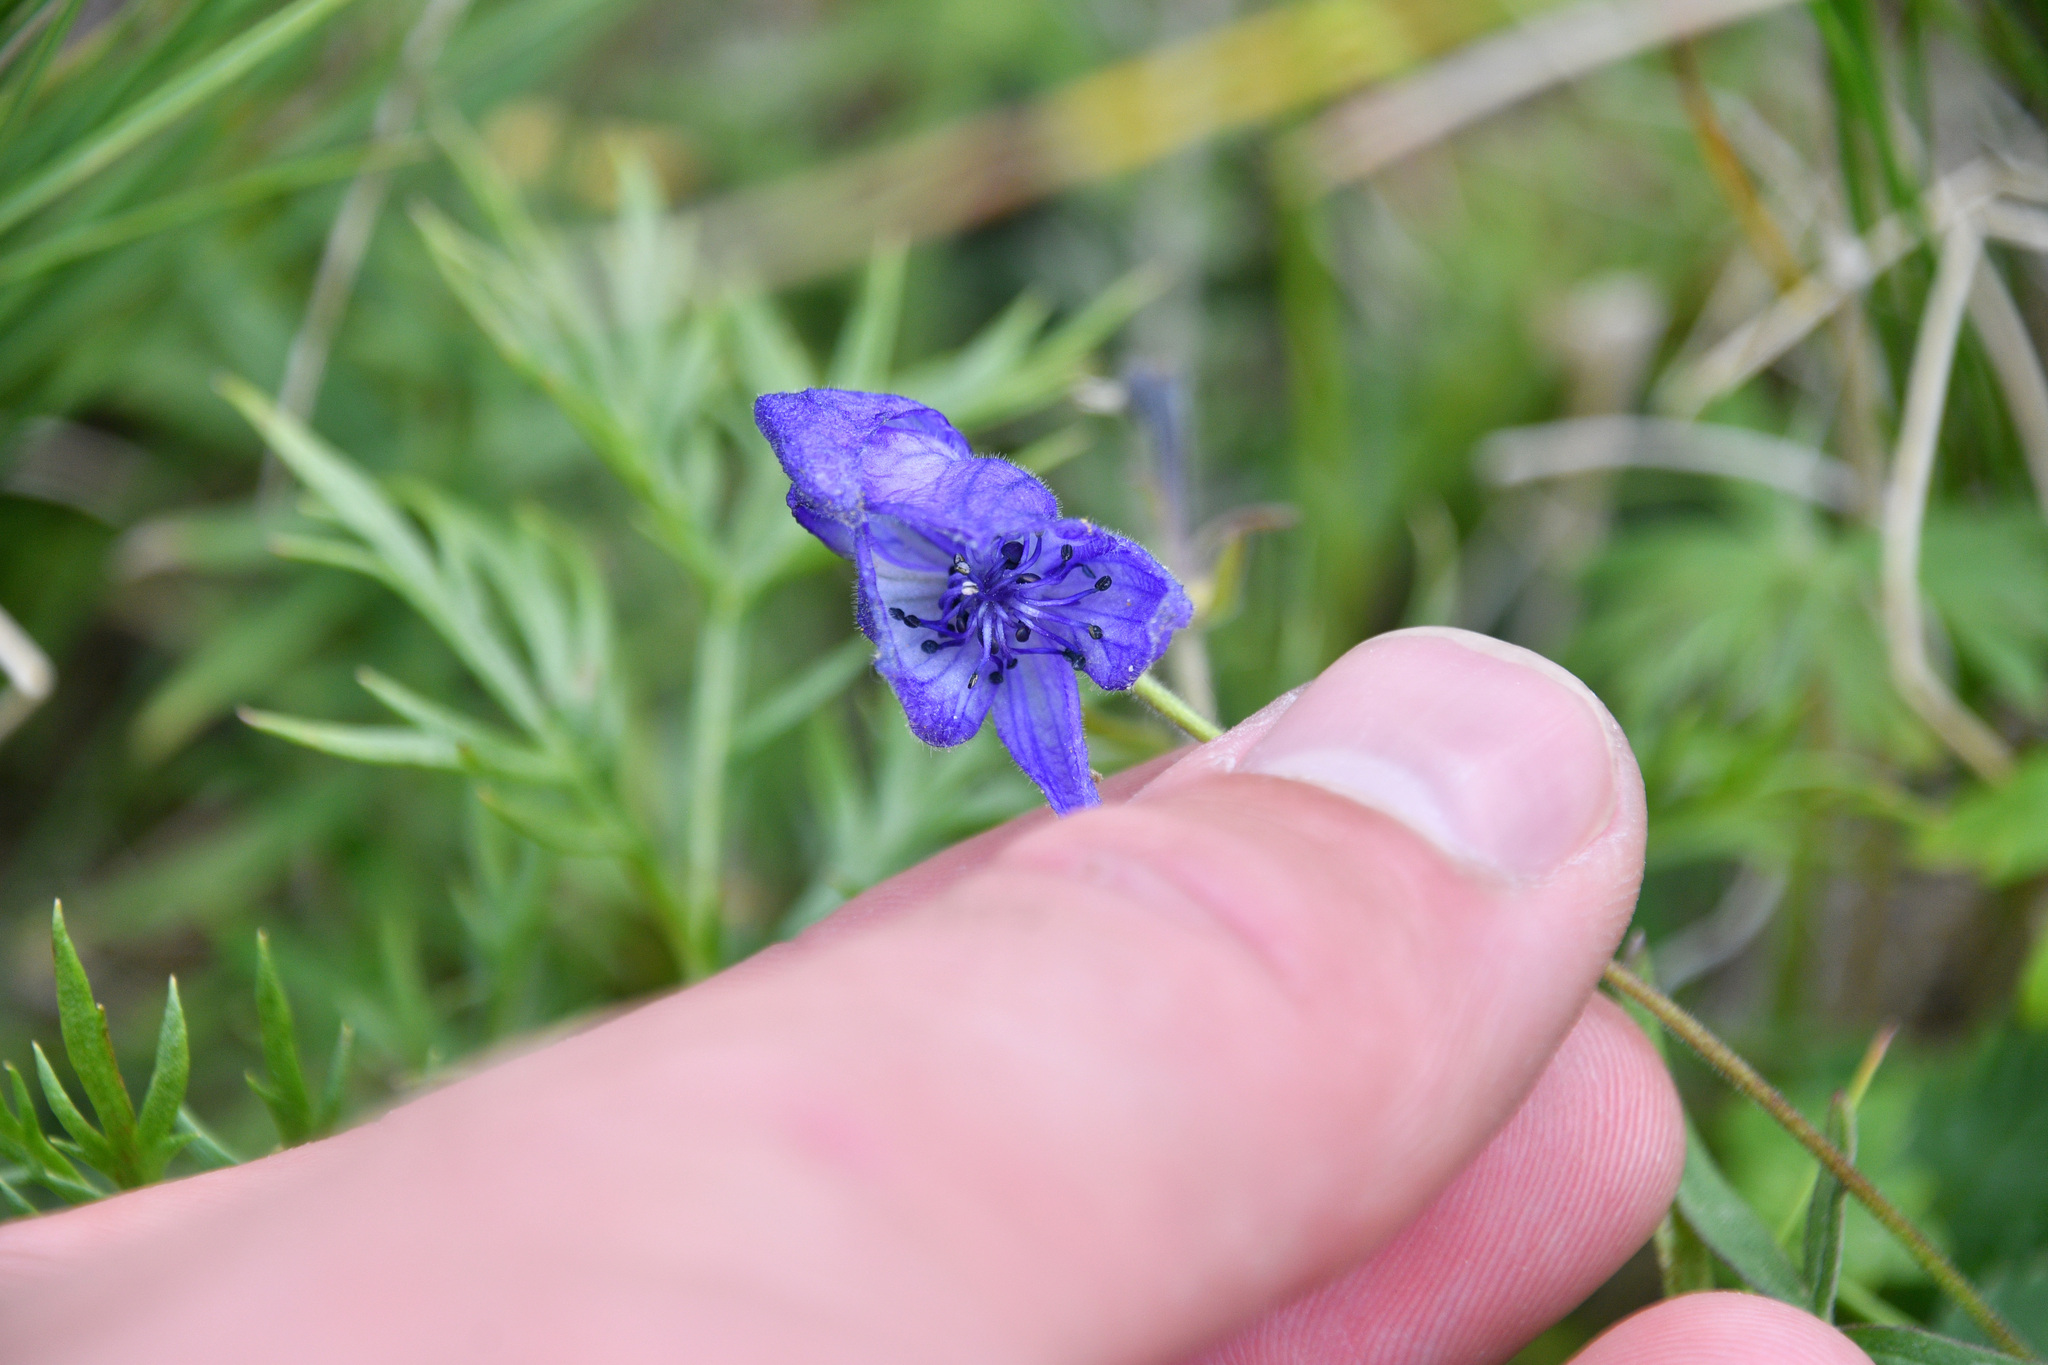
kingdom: Plantae
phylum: Tracheophyta
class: Magnoliopsida
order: Ranunculales
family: Ranunculaceae
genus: Aconitum
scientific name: Aconitum delphiniifolium
